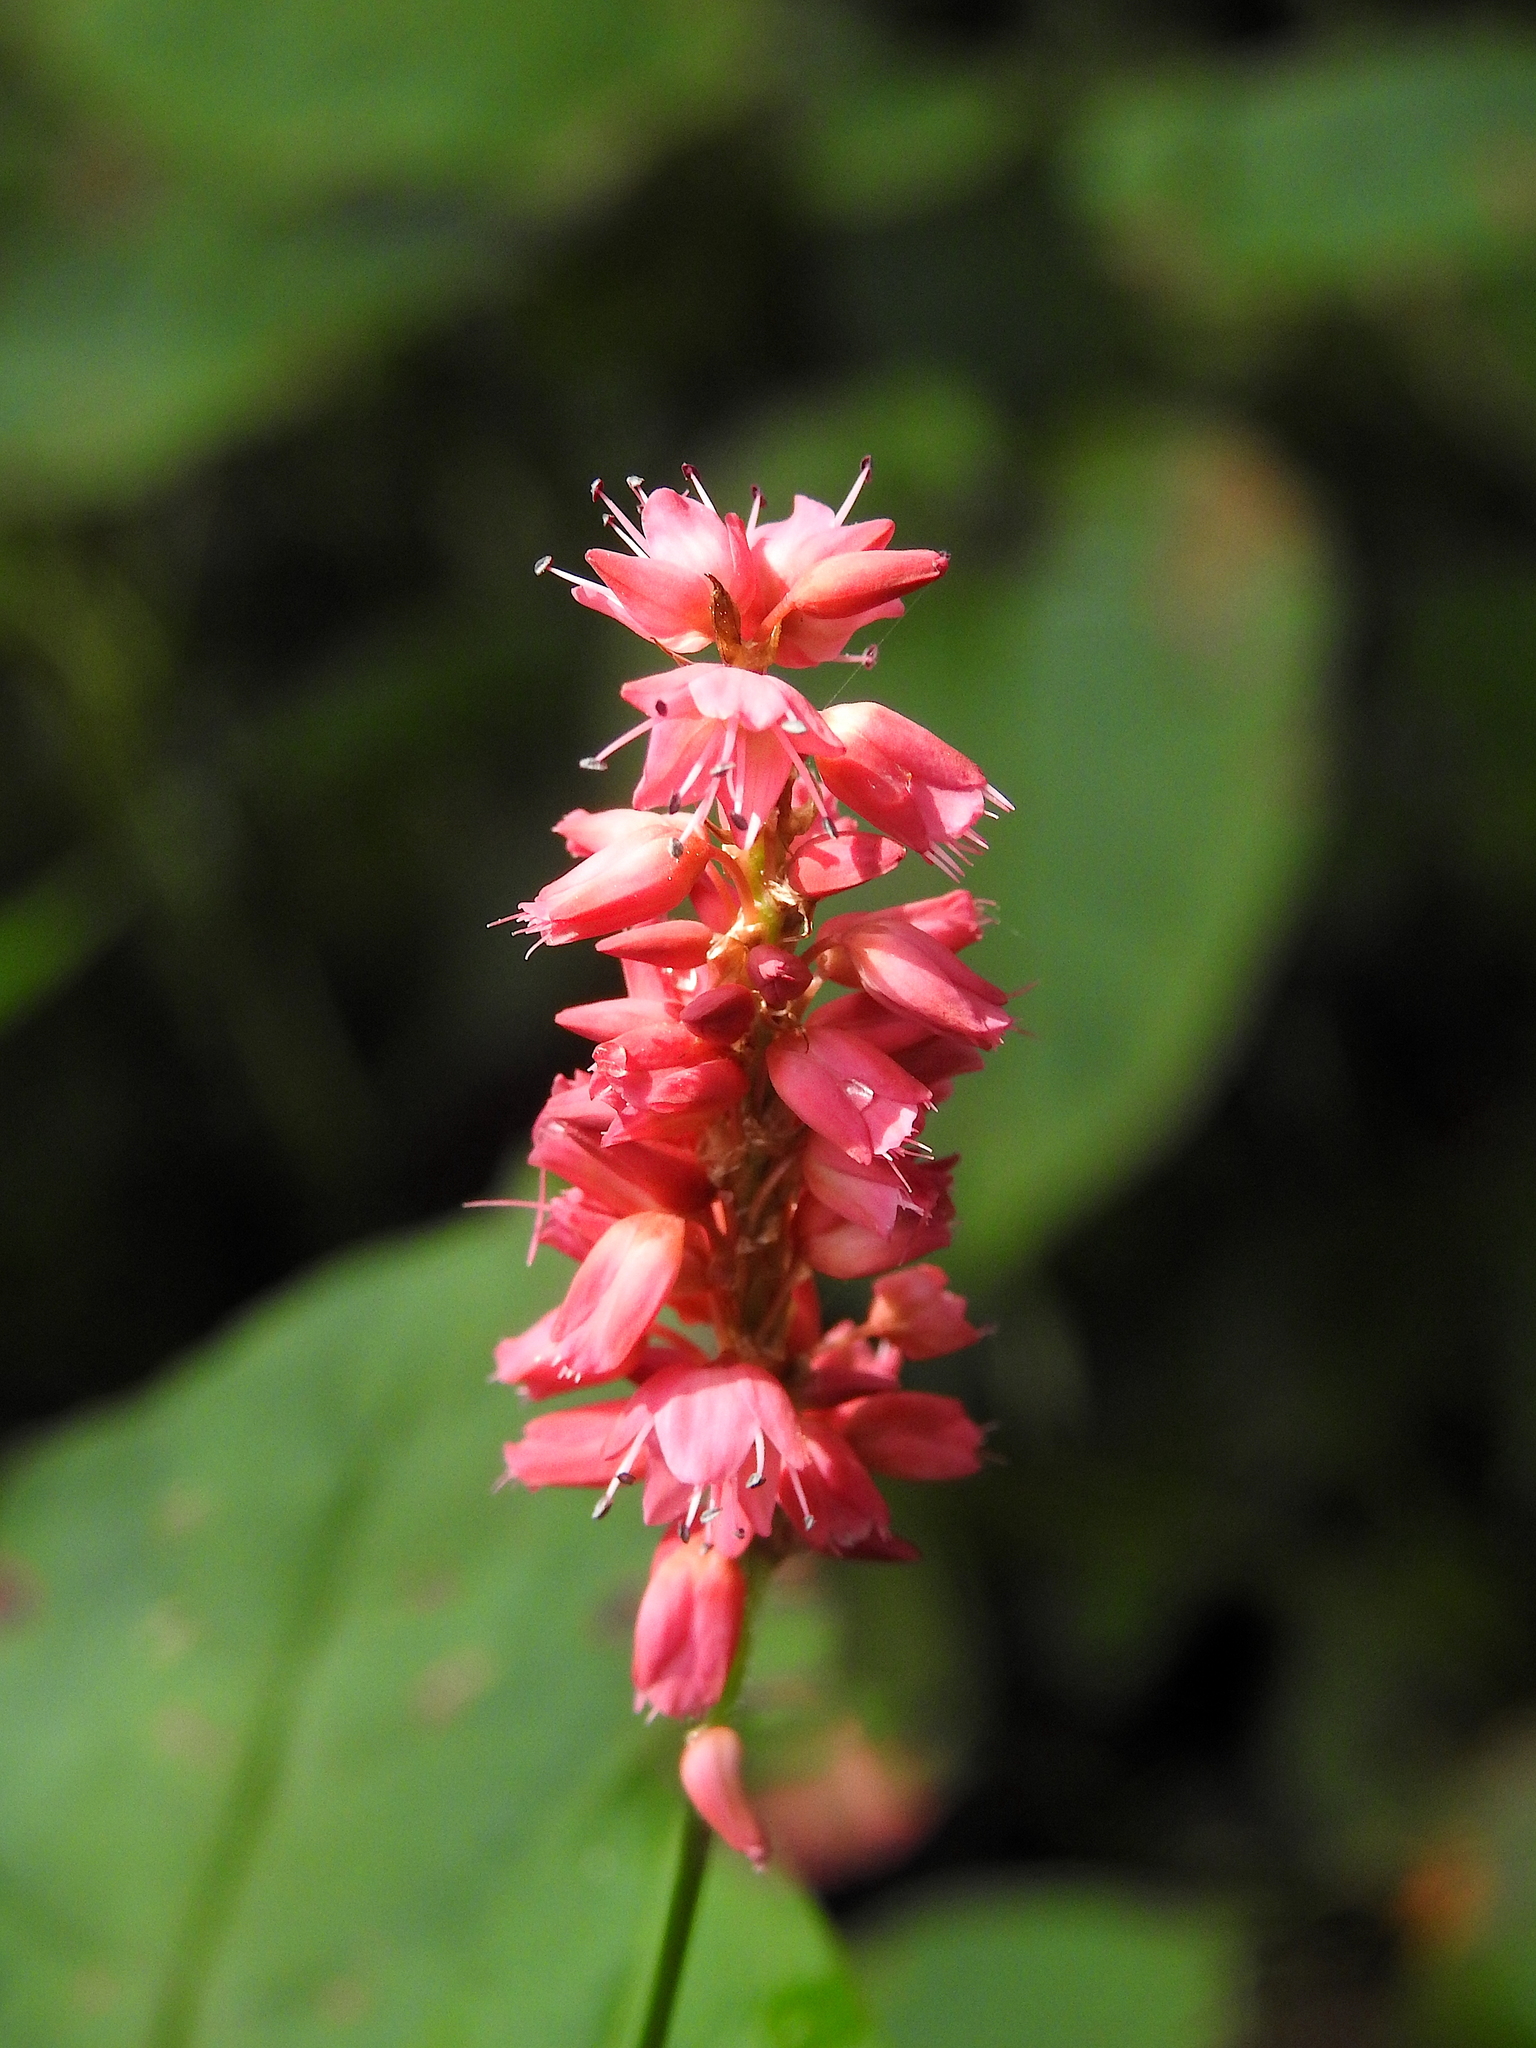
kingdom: Plantae
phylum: Tracheophyta
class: Magnoliopsida
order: Caryophyllales
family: Polygonaceae
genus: Bistorta
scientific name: Bistorta amplexicaulis
